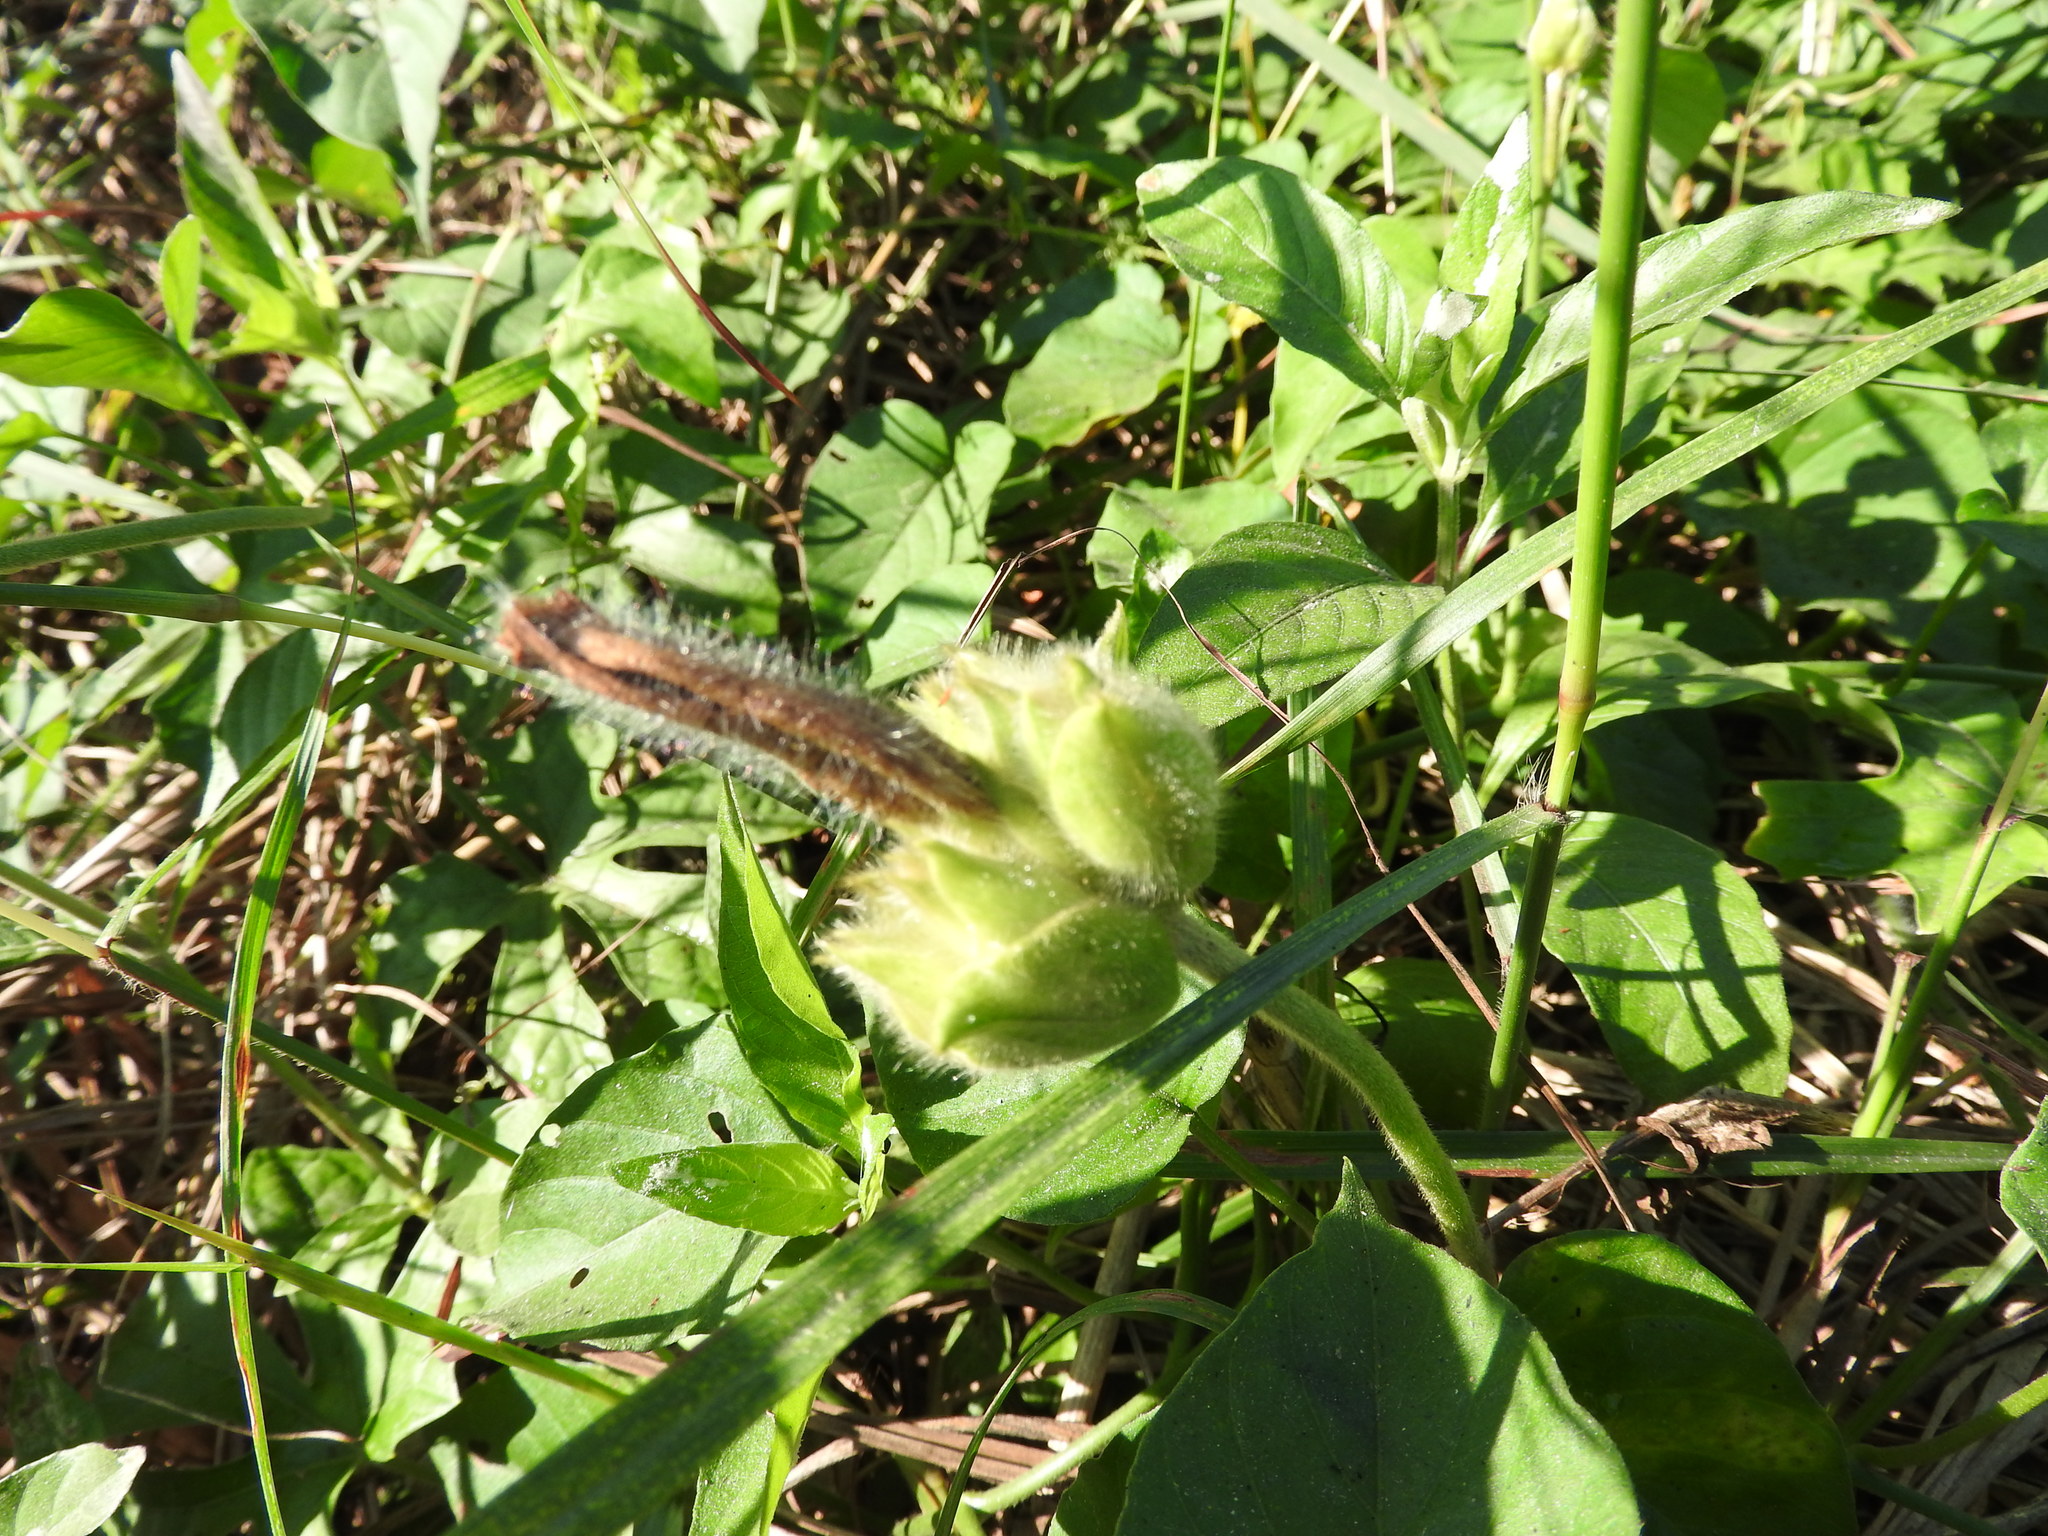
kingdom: Plantae
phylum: Tracheophyta
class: Magnoliopsida
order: Solanales
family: Convolvulaceae
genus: Odonellia
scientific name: Odonellia hirtiflora
